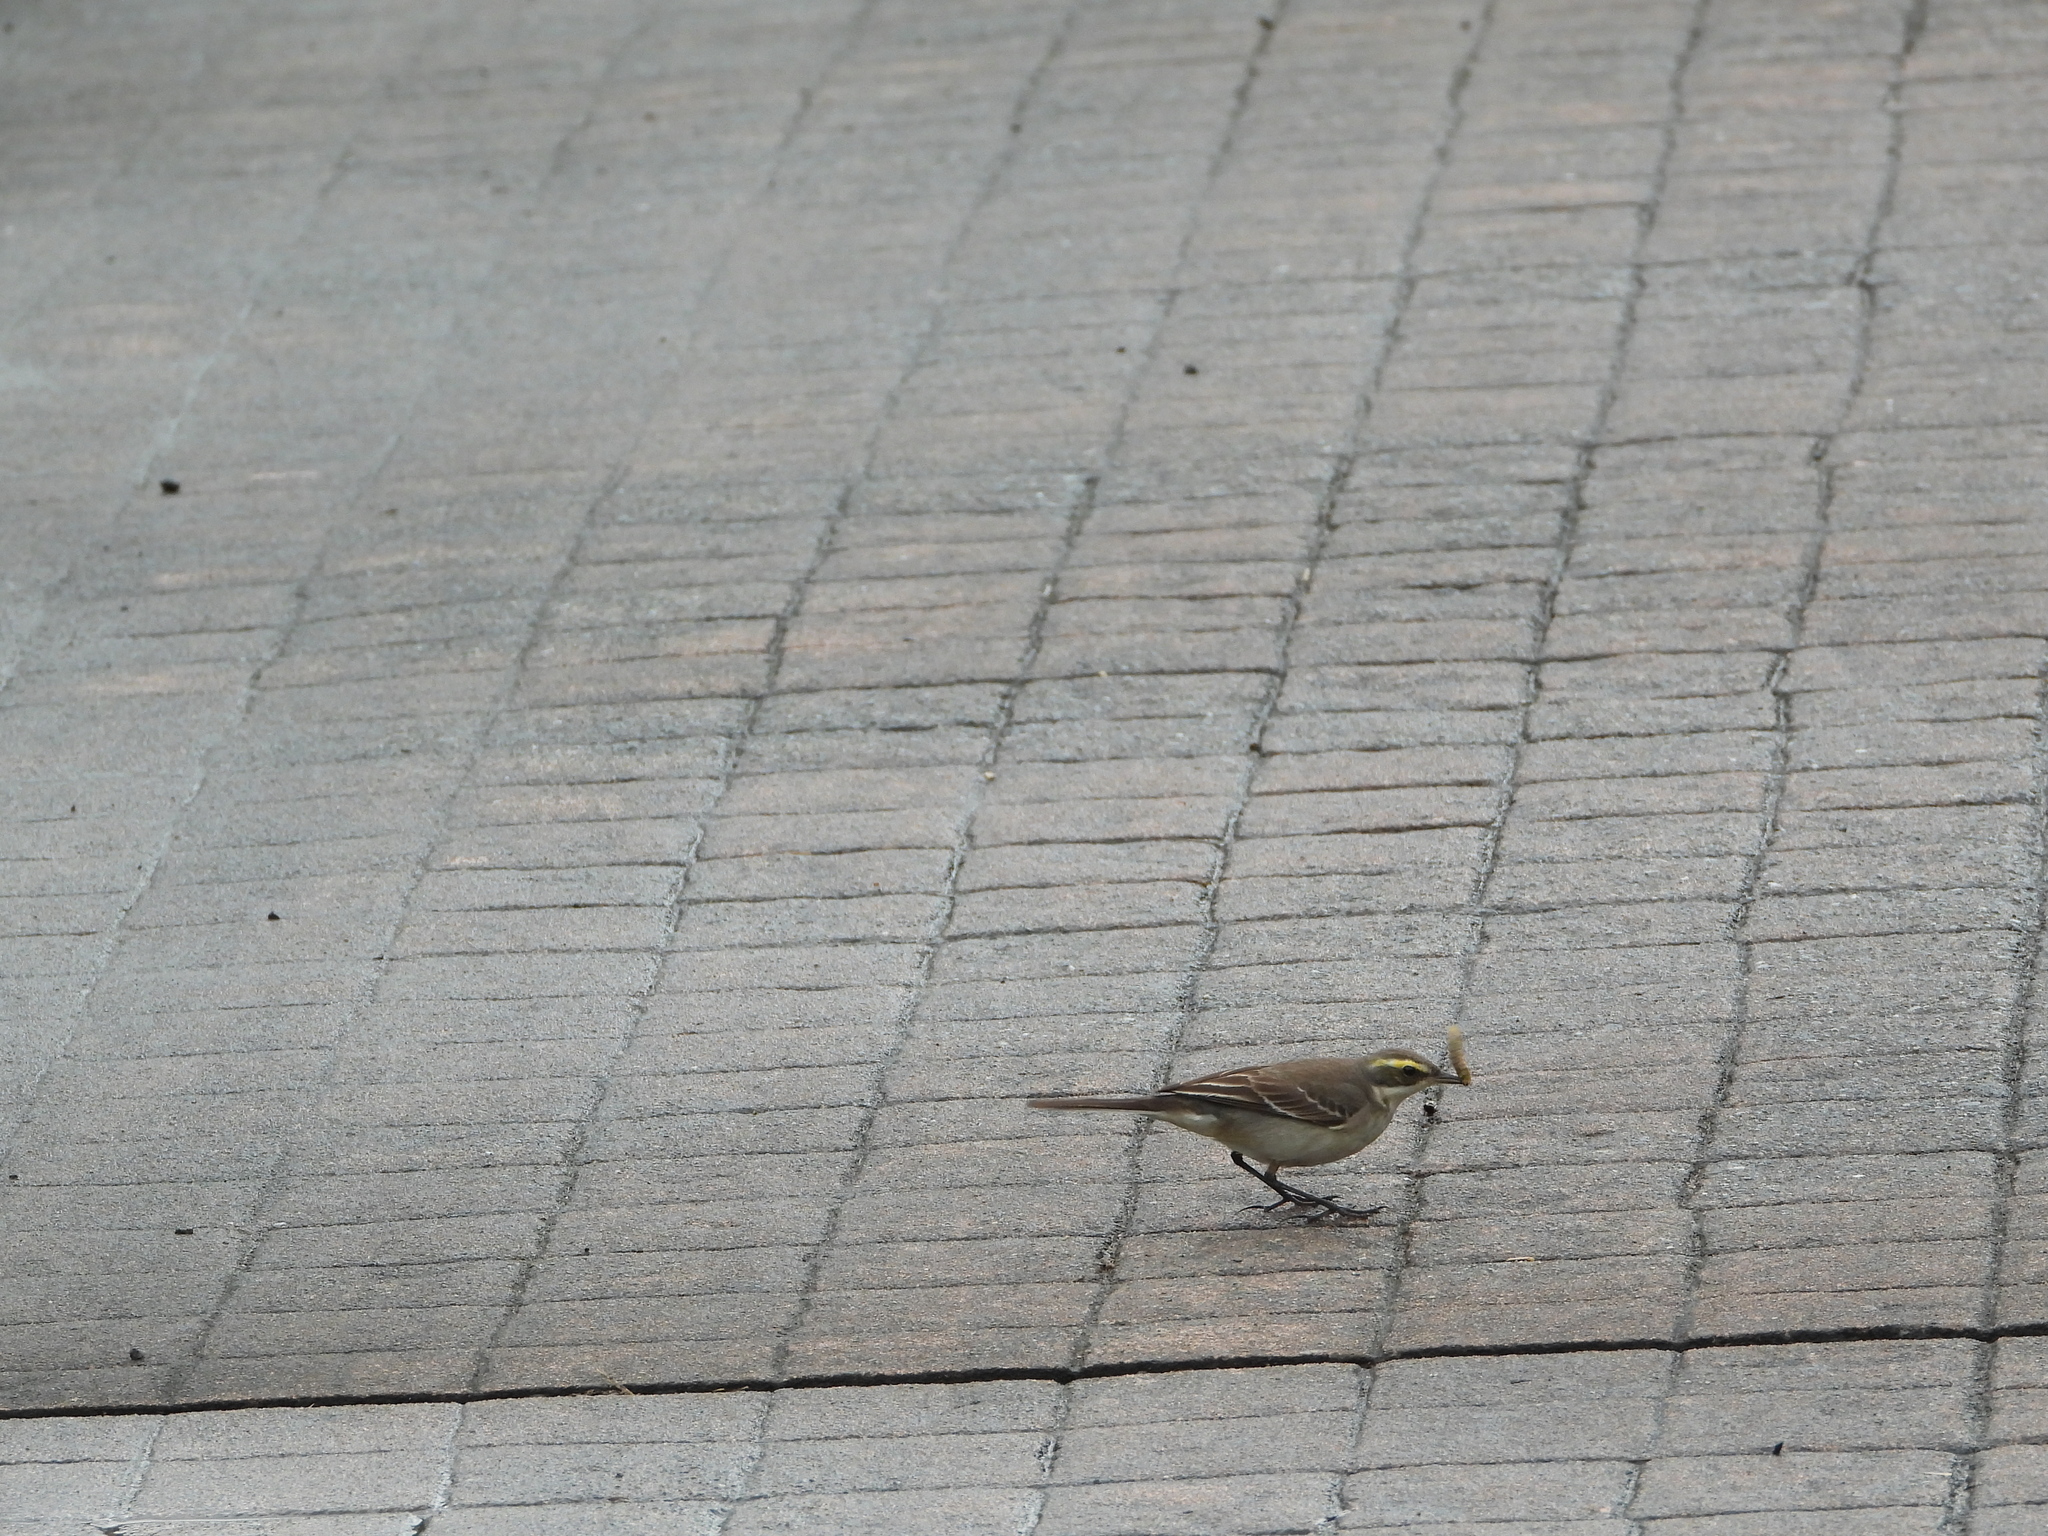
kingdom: Animalia
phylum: Chordata
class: Aves
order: Passeriformes
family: Motacillidae
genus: Motacilla
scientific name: Motacilla tschutschensis
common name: Eastern yellow wagtail
